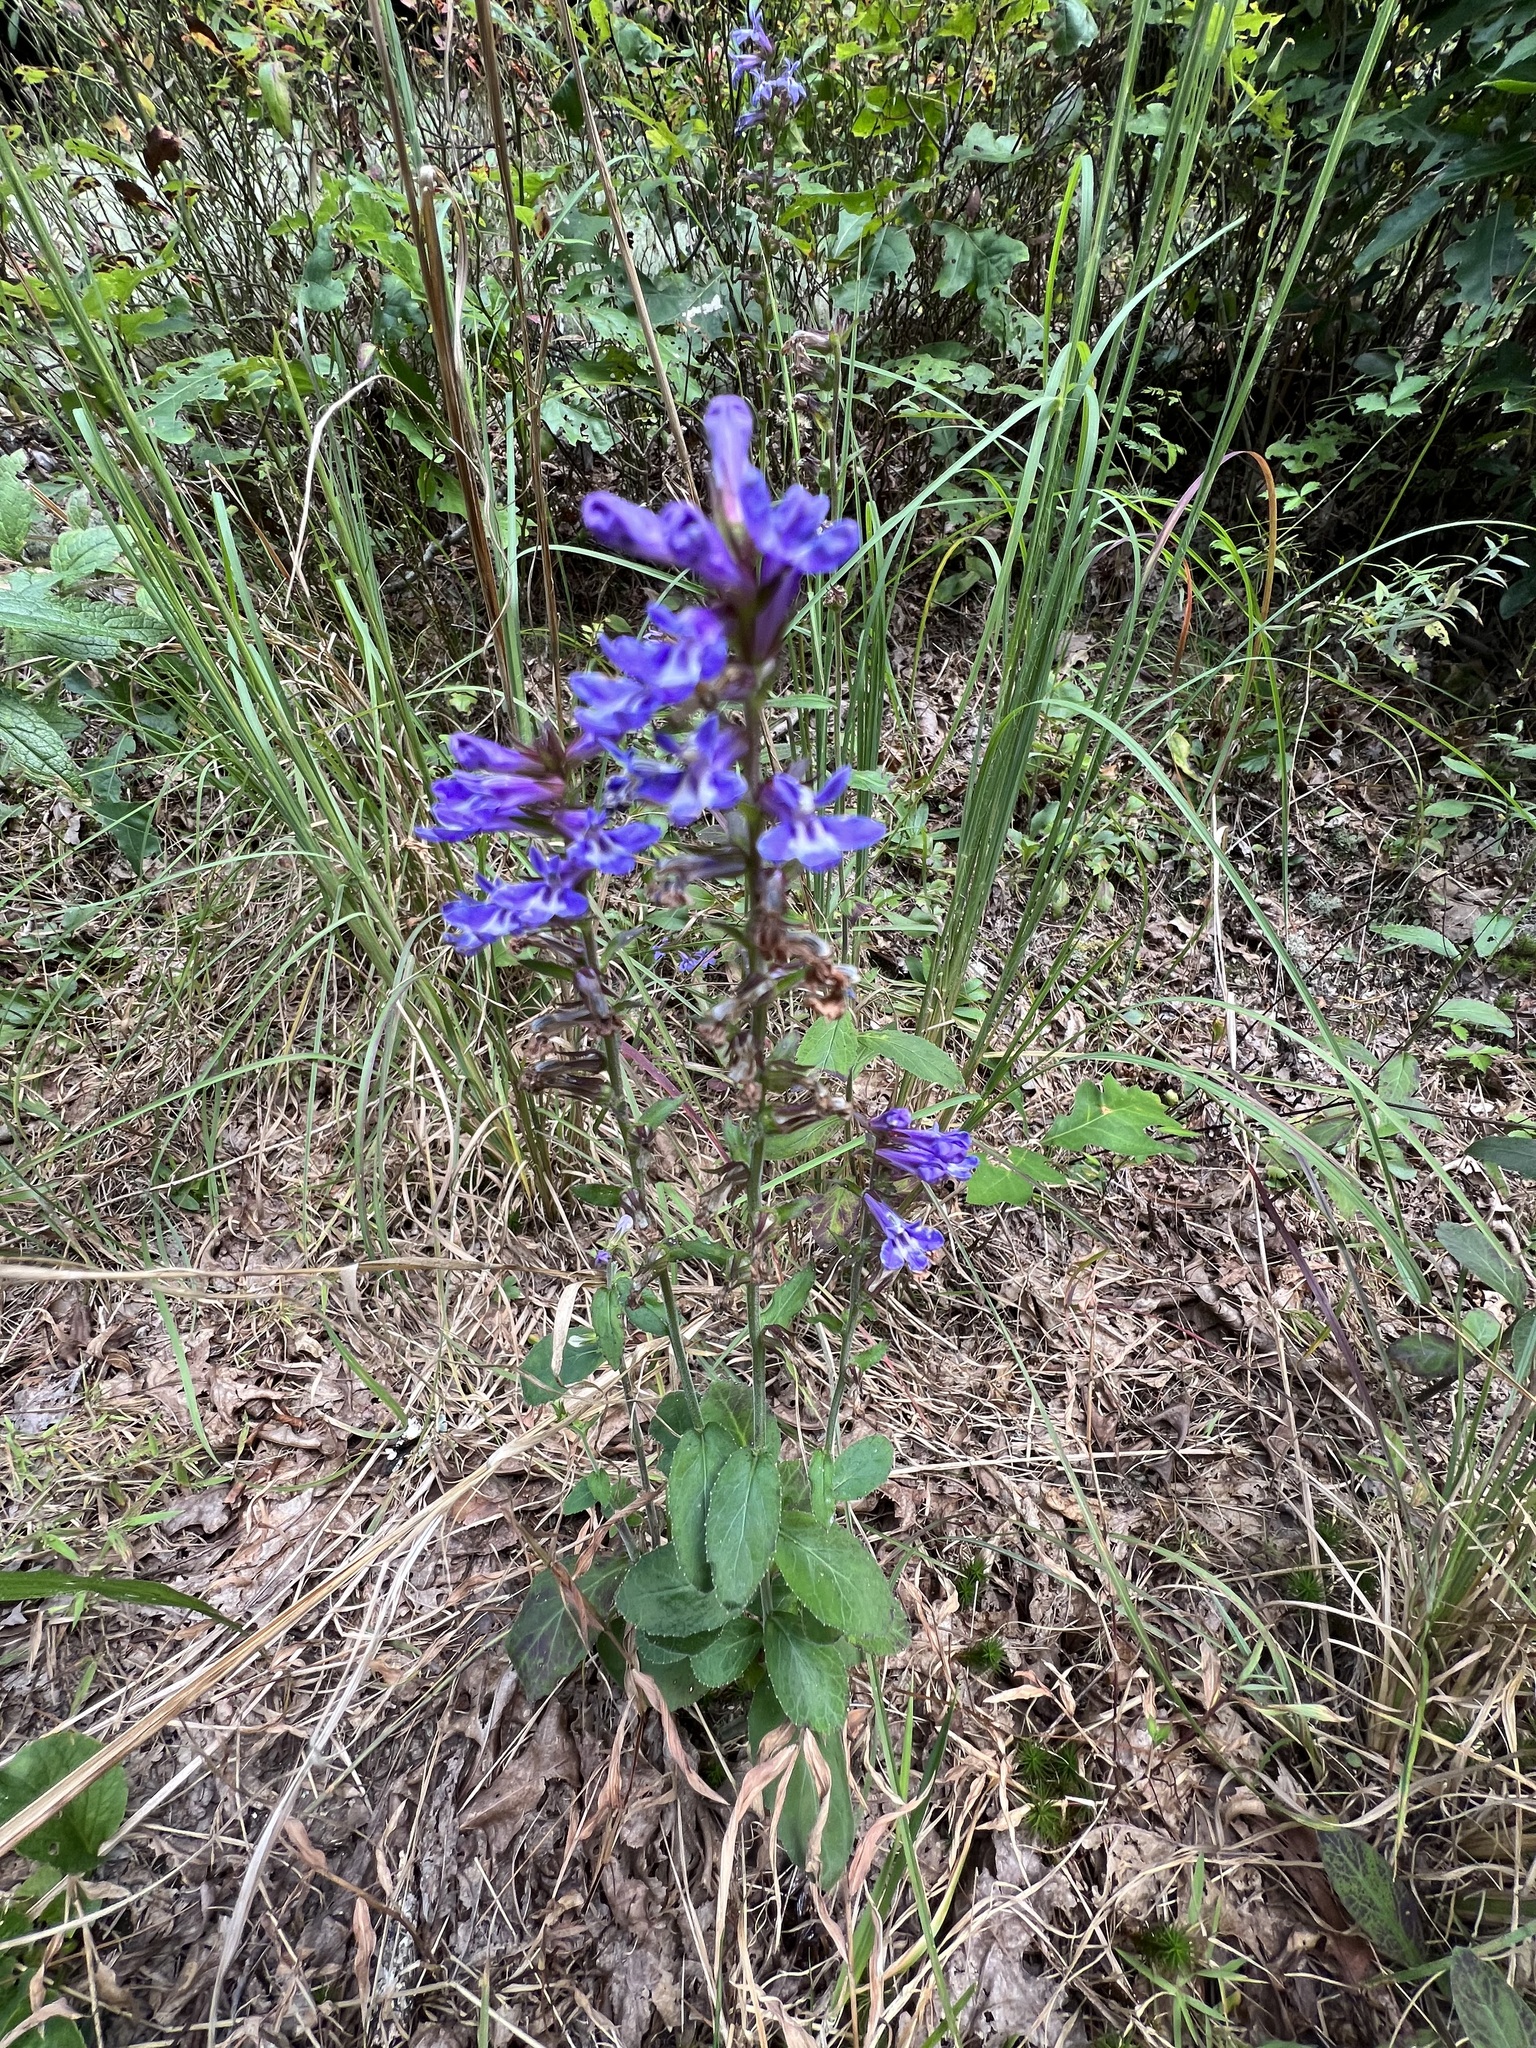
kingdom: Plantae
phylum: Tracheophyta
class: Magnoliopsida
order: Asterales
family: Campanulaceae
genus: Lobelia
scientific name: Lobelia puberula
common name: Purple dewdrop
